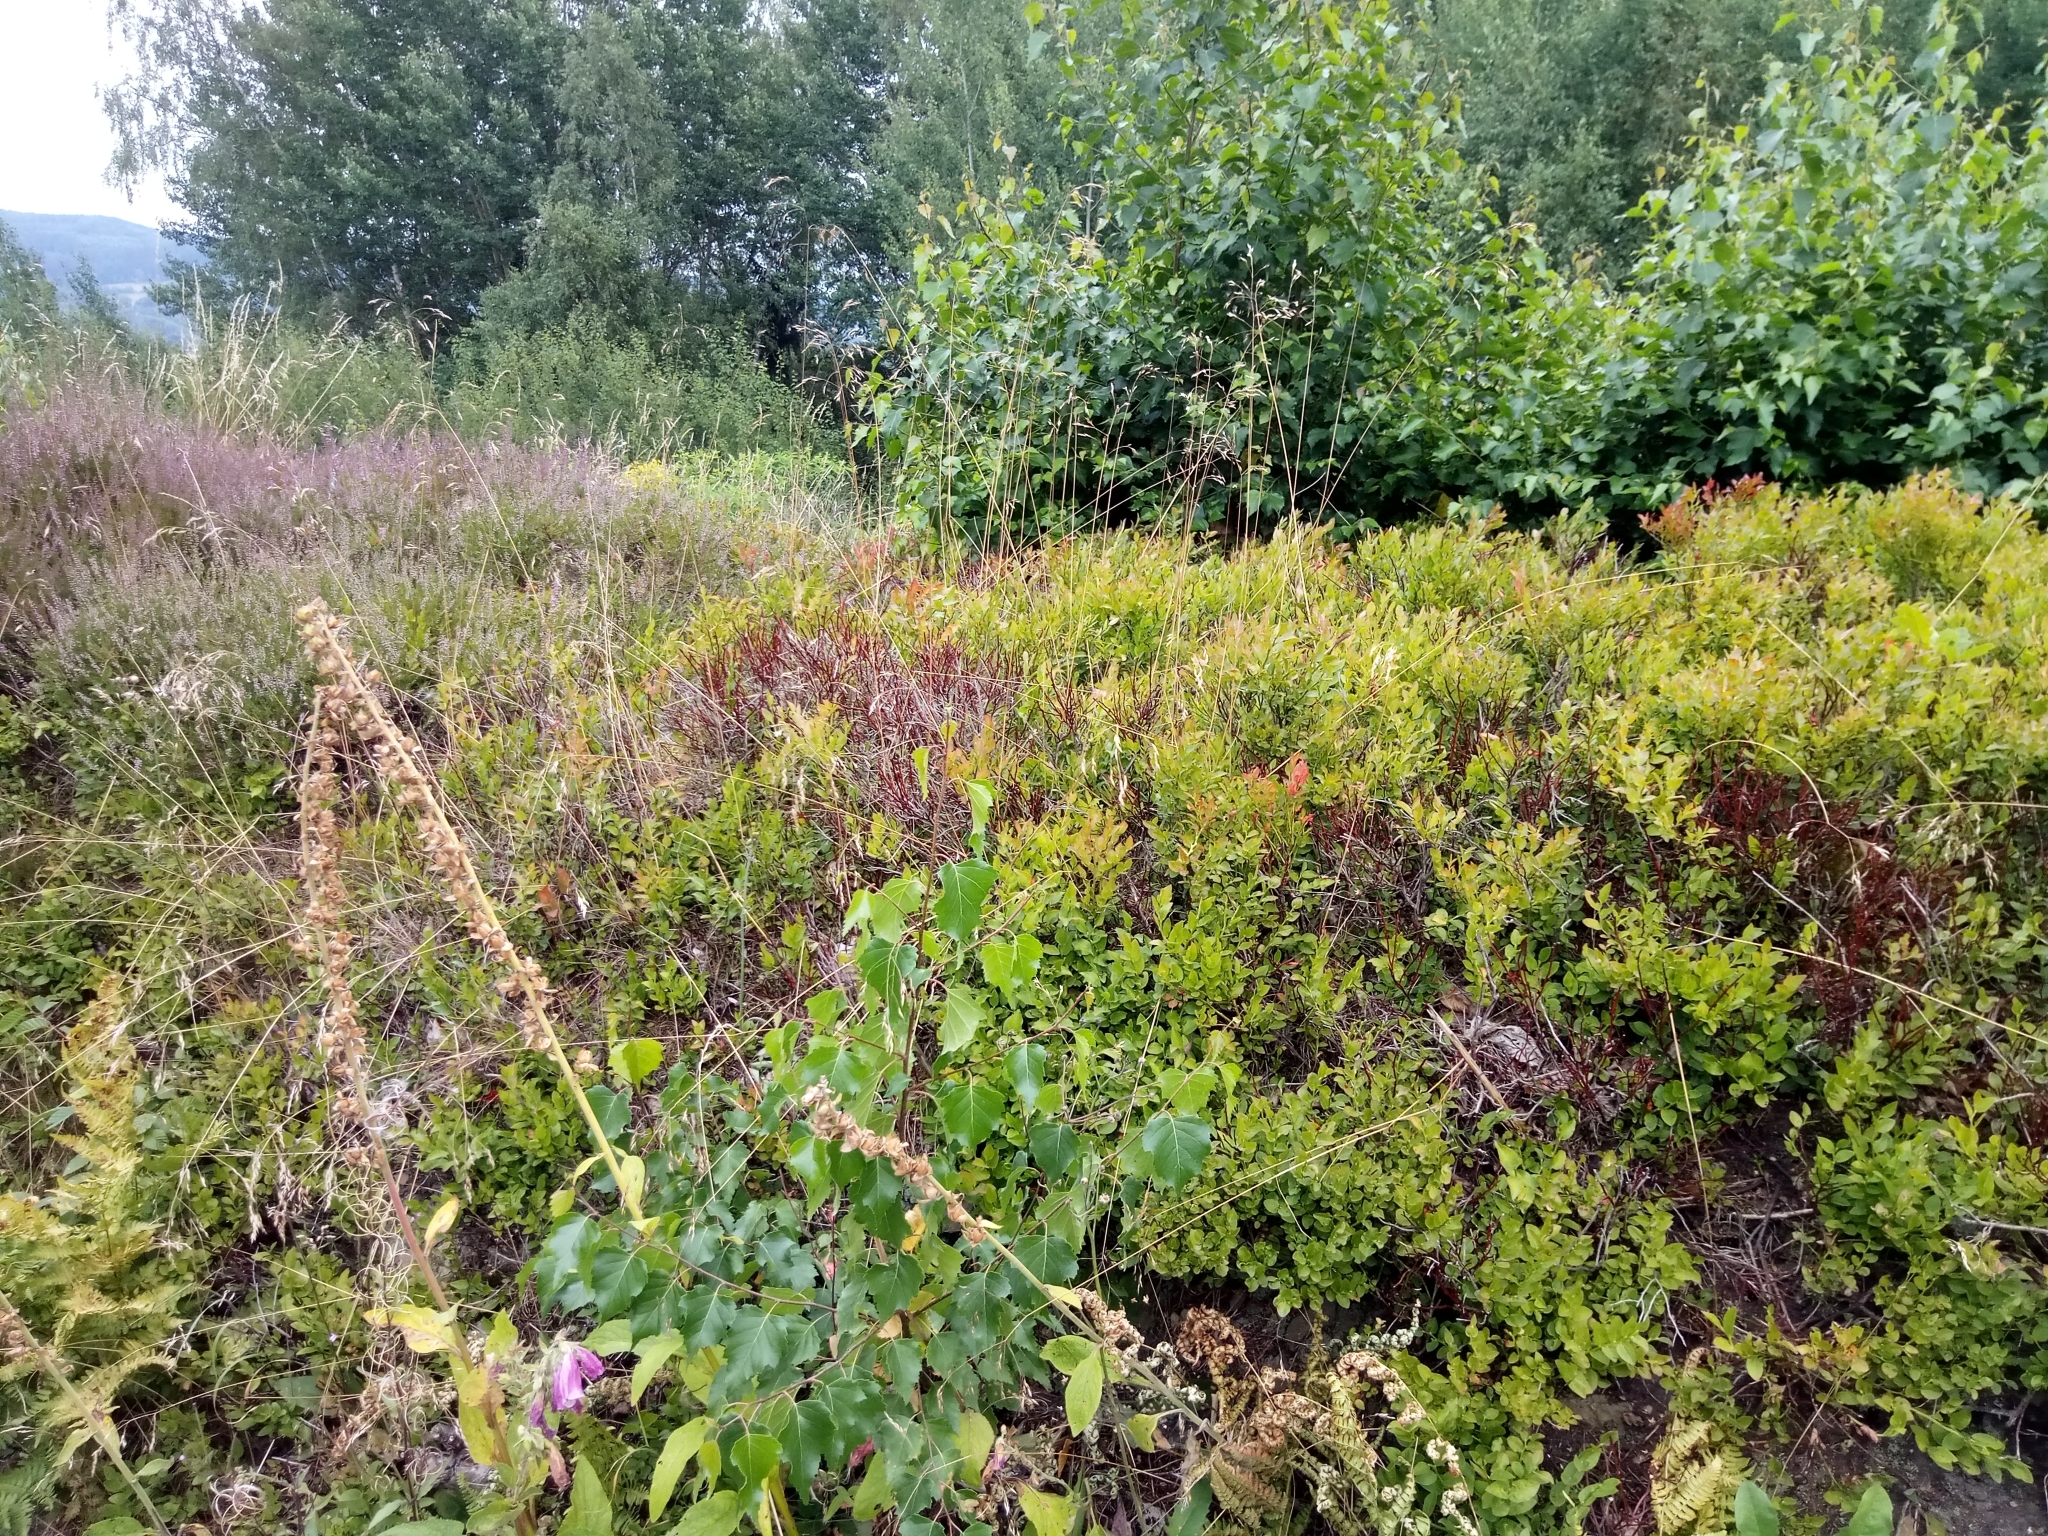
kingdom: Plantae
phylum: Tracheophyta
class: Magnoliopsida
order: Ericales
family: Ericaceae
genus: Calluna
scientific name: Calluna vulgaris
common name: Heather
